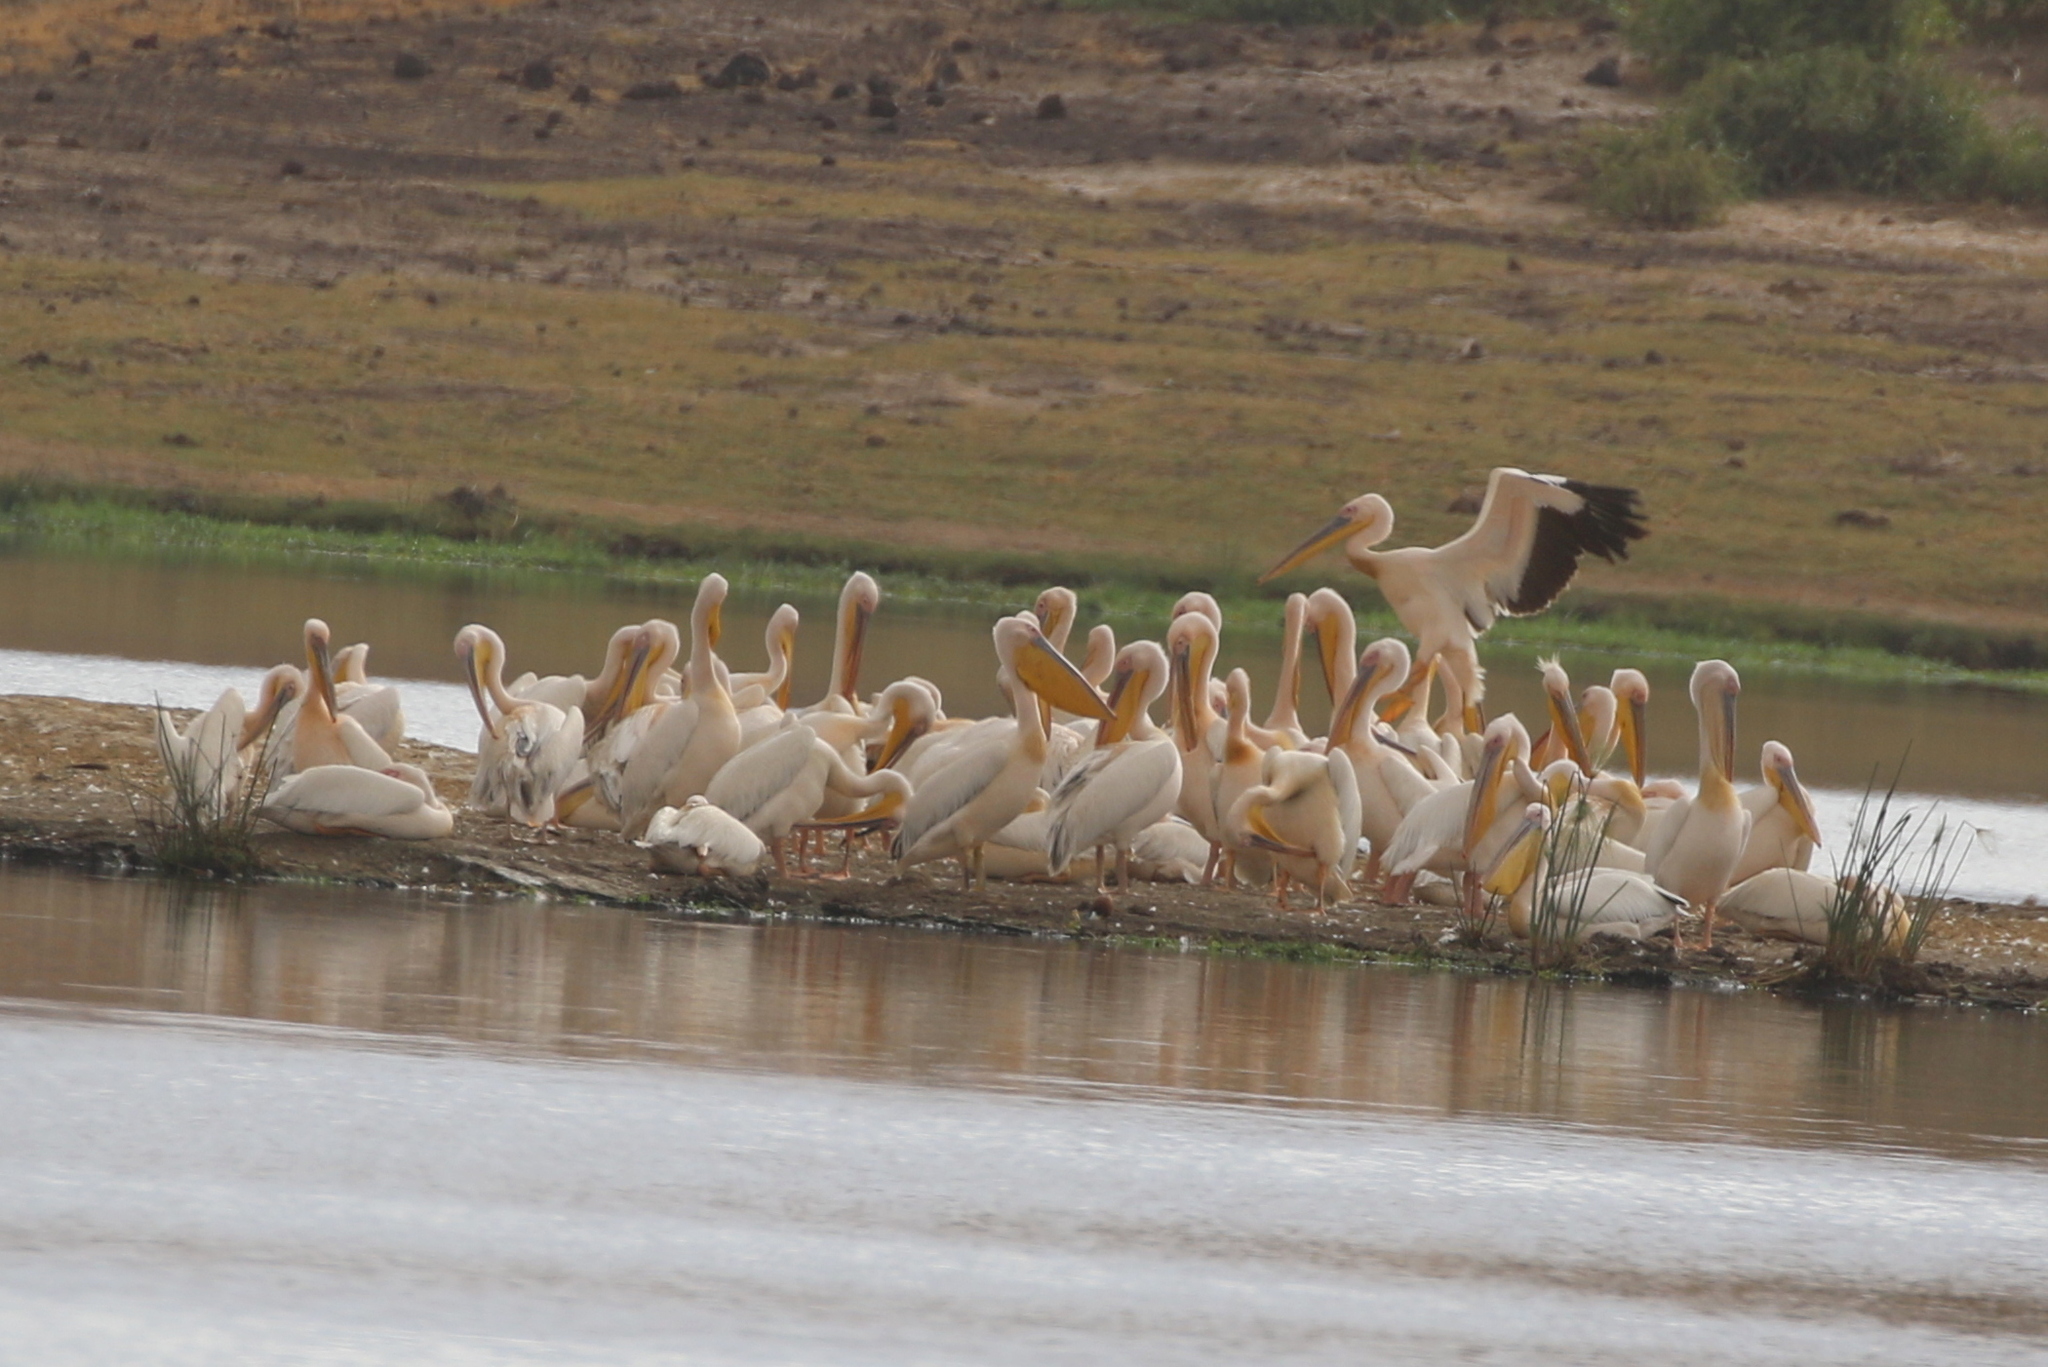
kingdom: Animalia
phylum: Chordata
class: Aves
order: Pelecaniformes
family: Pelecanidae
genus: Pelecanus
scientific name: Pelecanus onocrotalus
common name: Great white pelican
